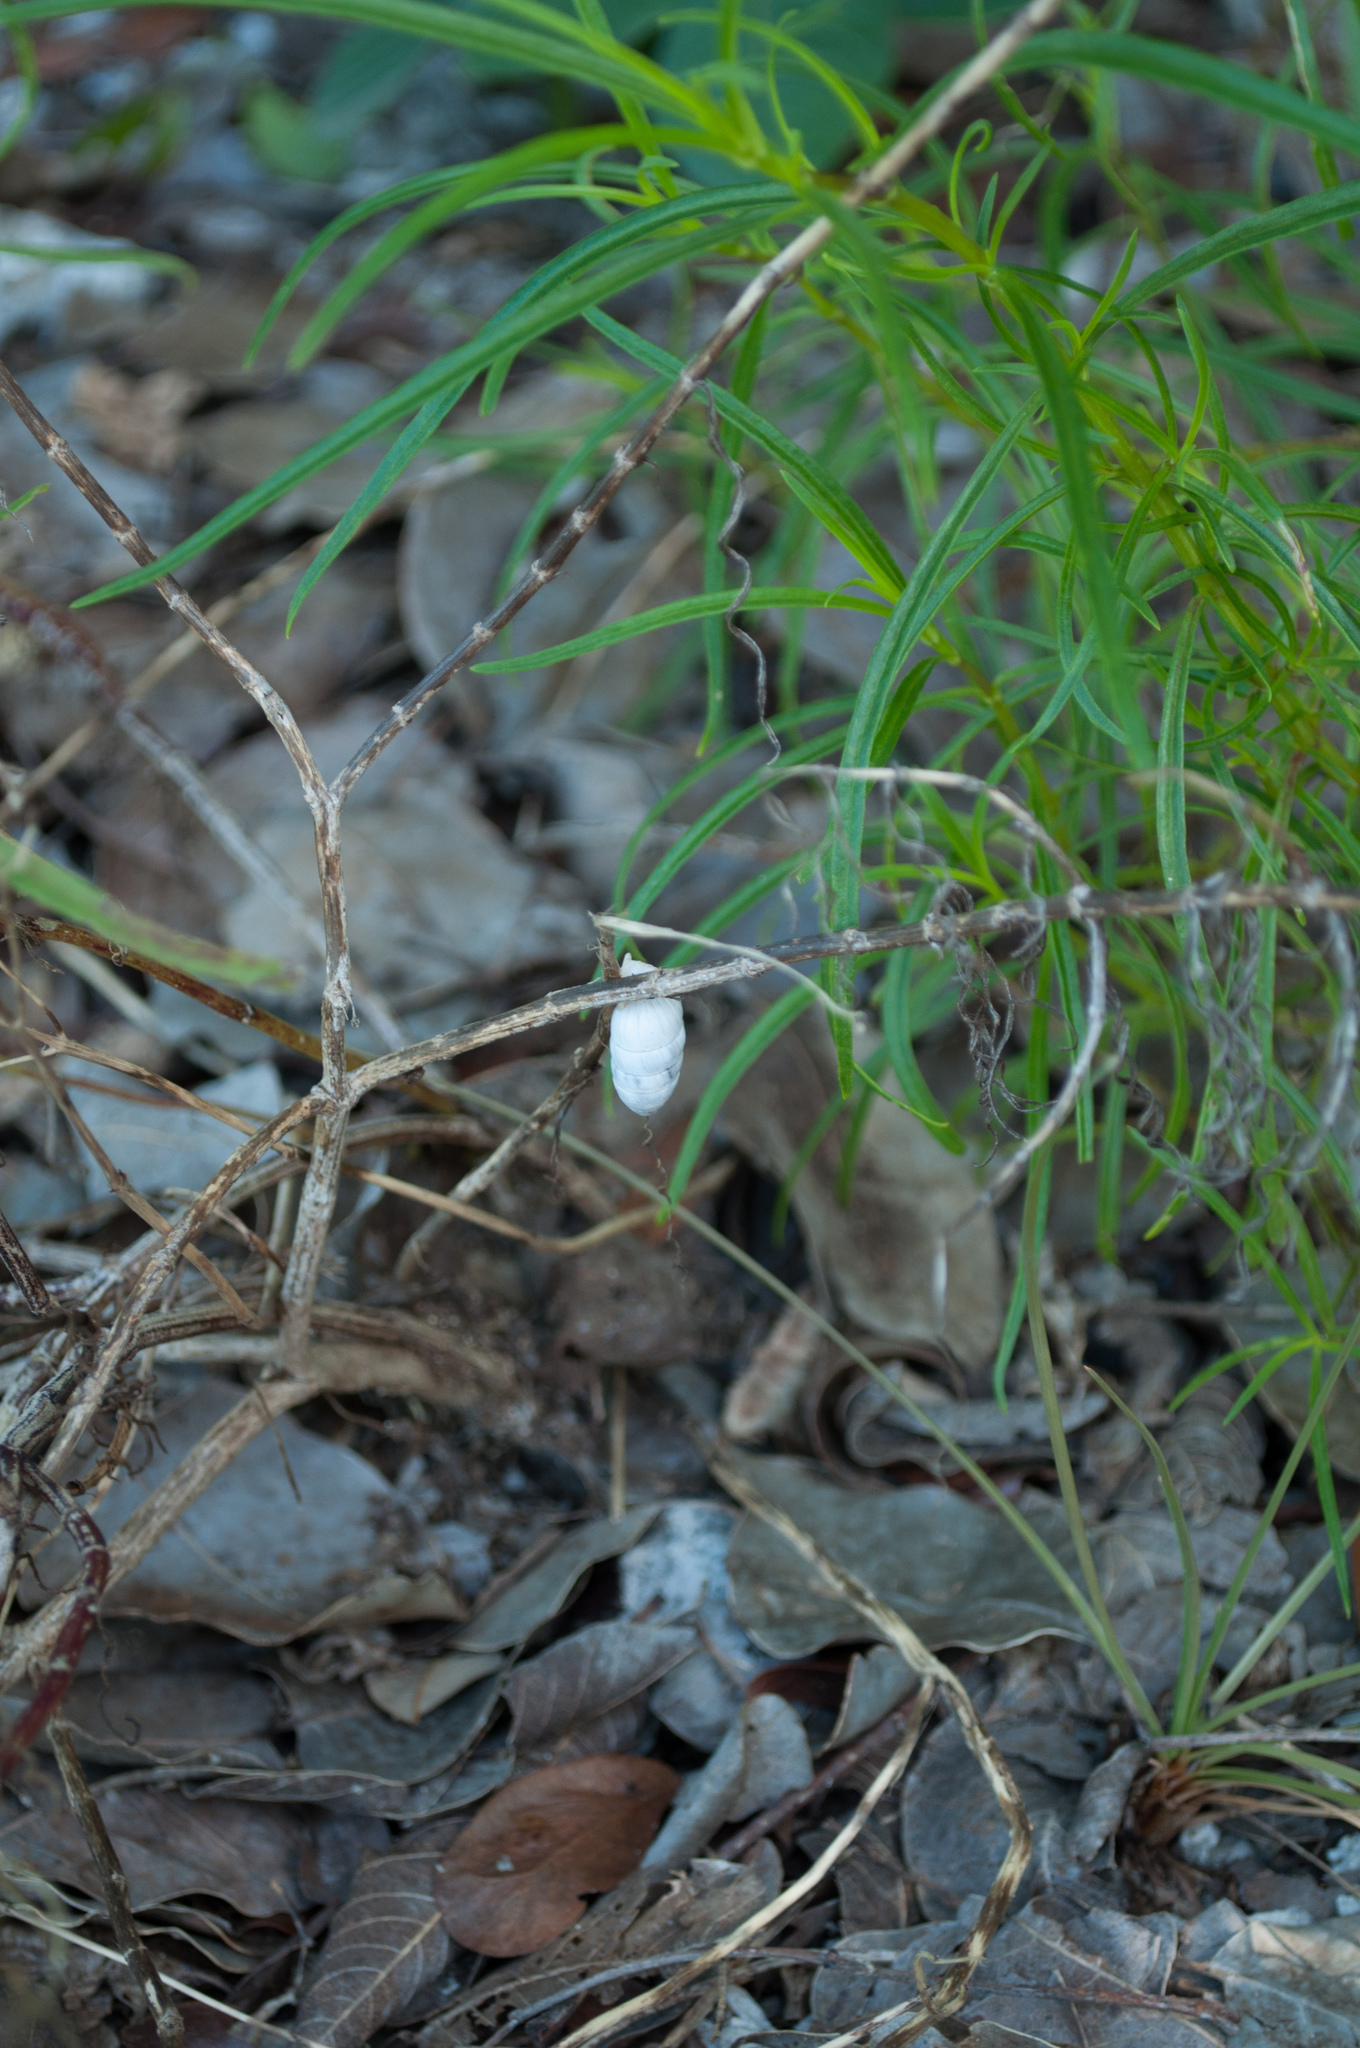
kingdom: Animalia
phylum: Mollusca
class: Gastropoda
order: Stylommatophora
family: Cerionidae
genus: Cerion
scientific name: Cerion incanum
